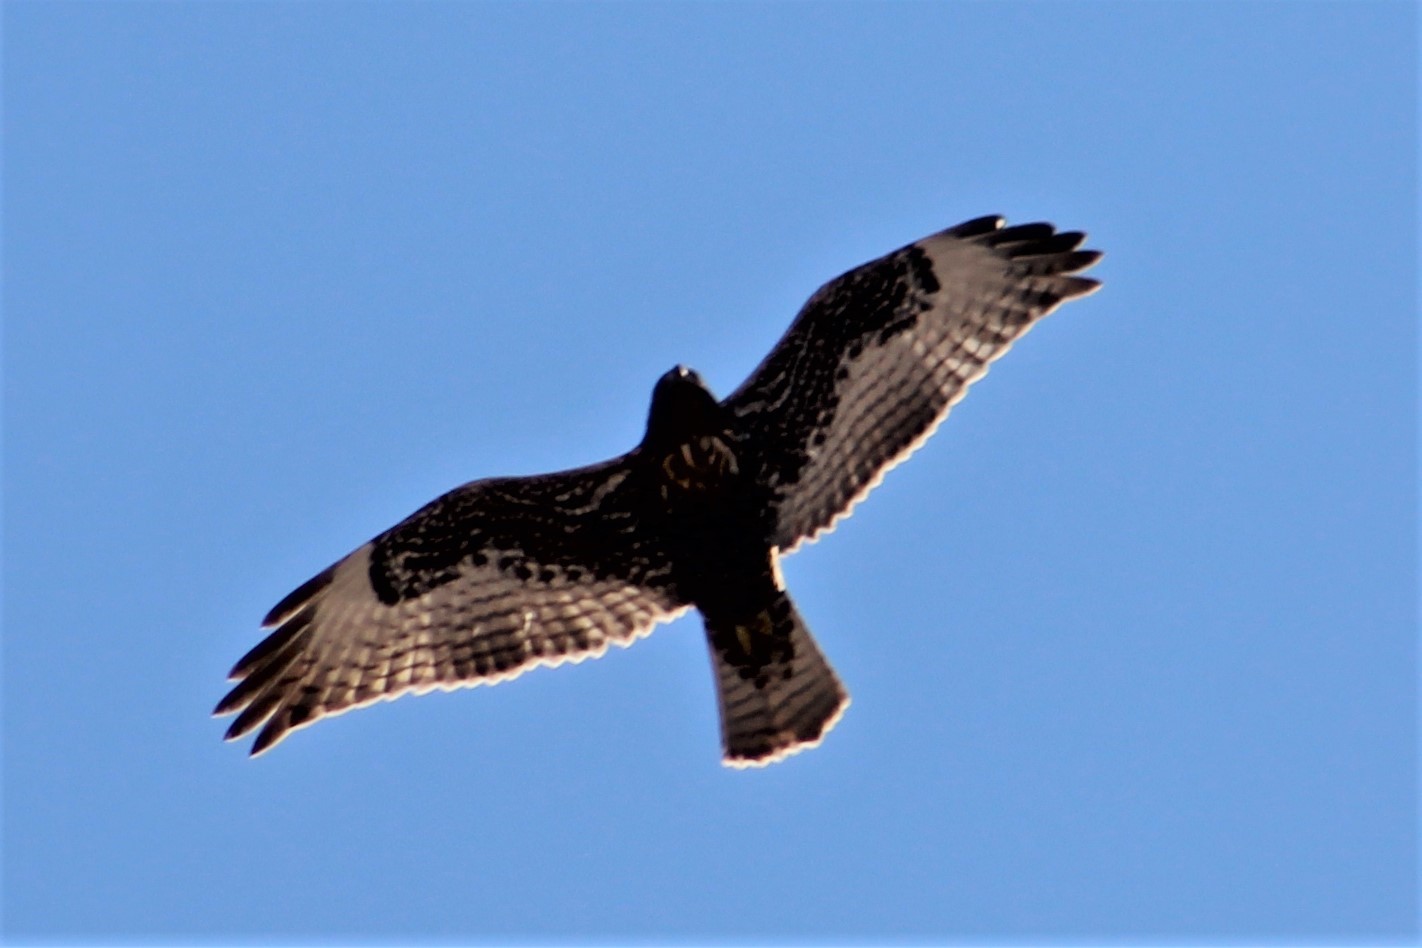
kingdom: Animalia
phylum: Chordata
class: Aves
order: Accipitriformes
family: Accipitridae
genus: Buteo
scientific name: Buteo jamaicensis
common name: Red-tailed hawk
